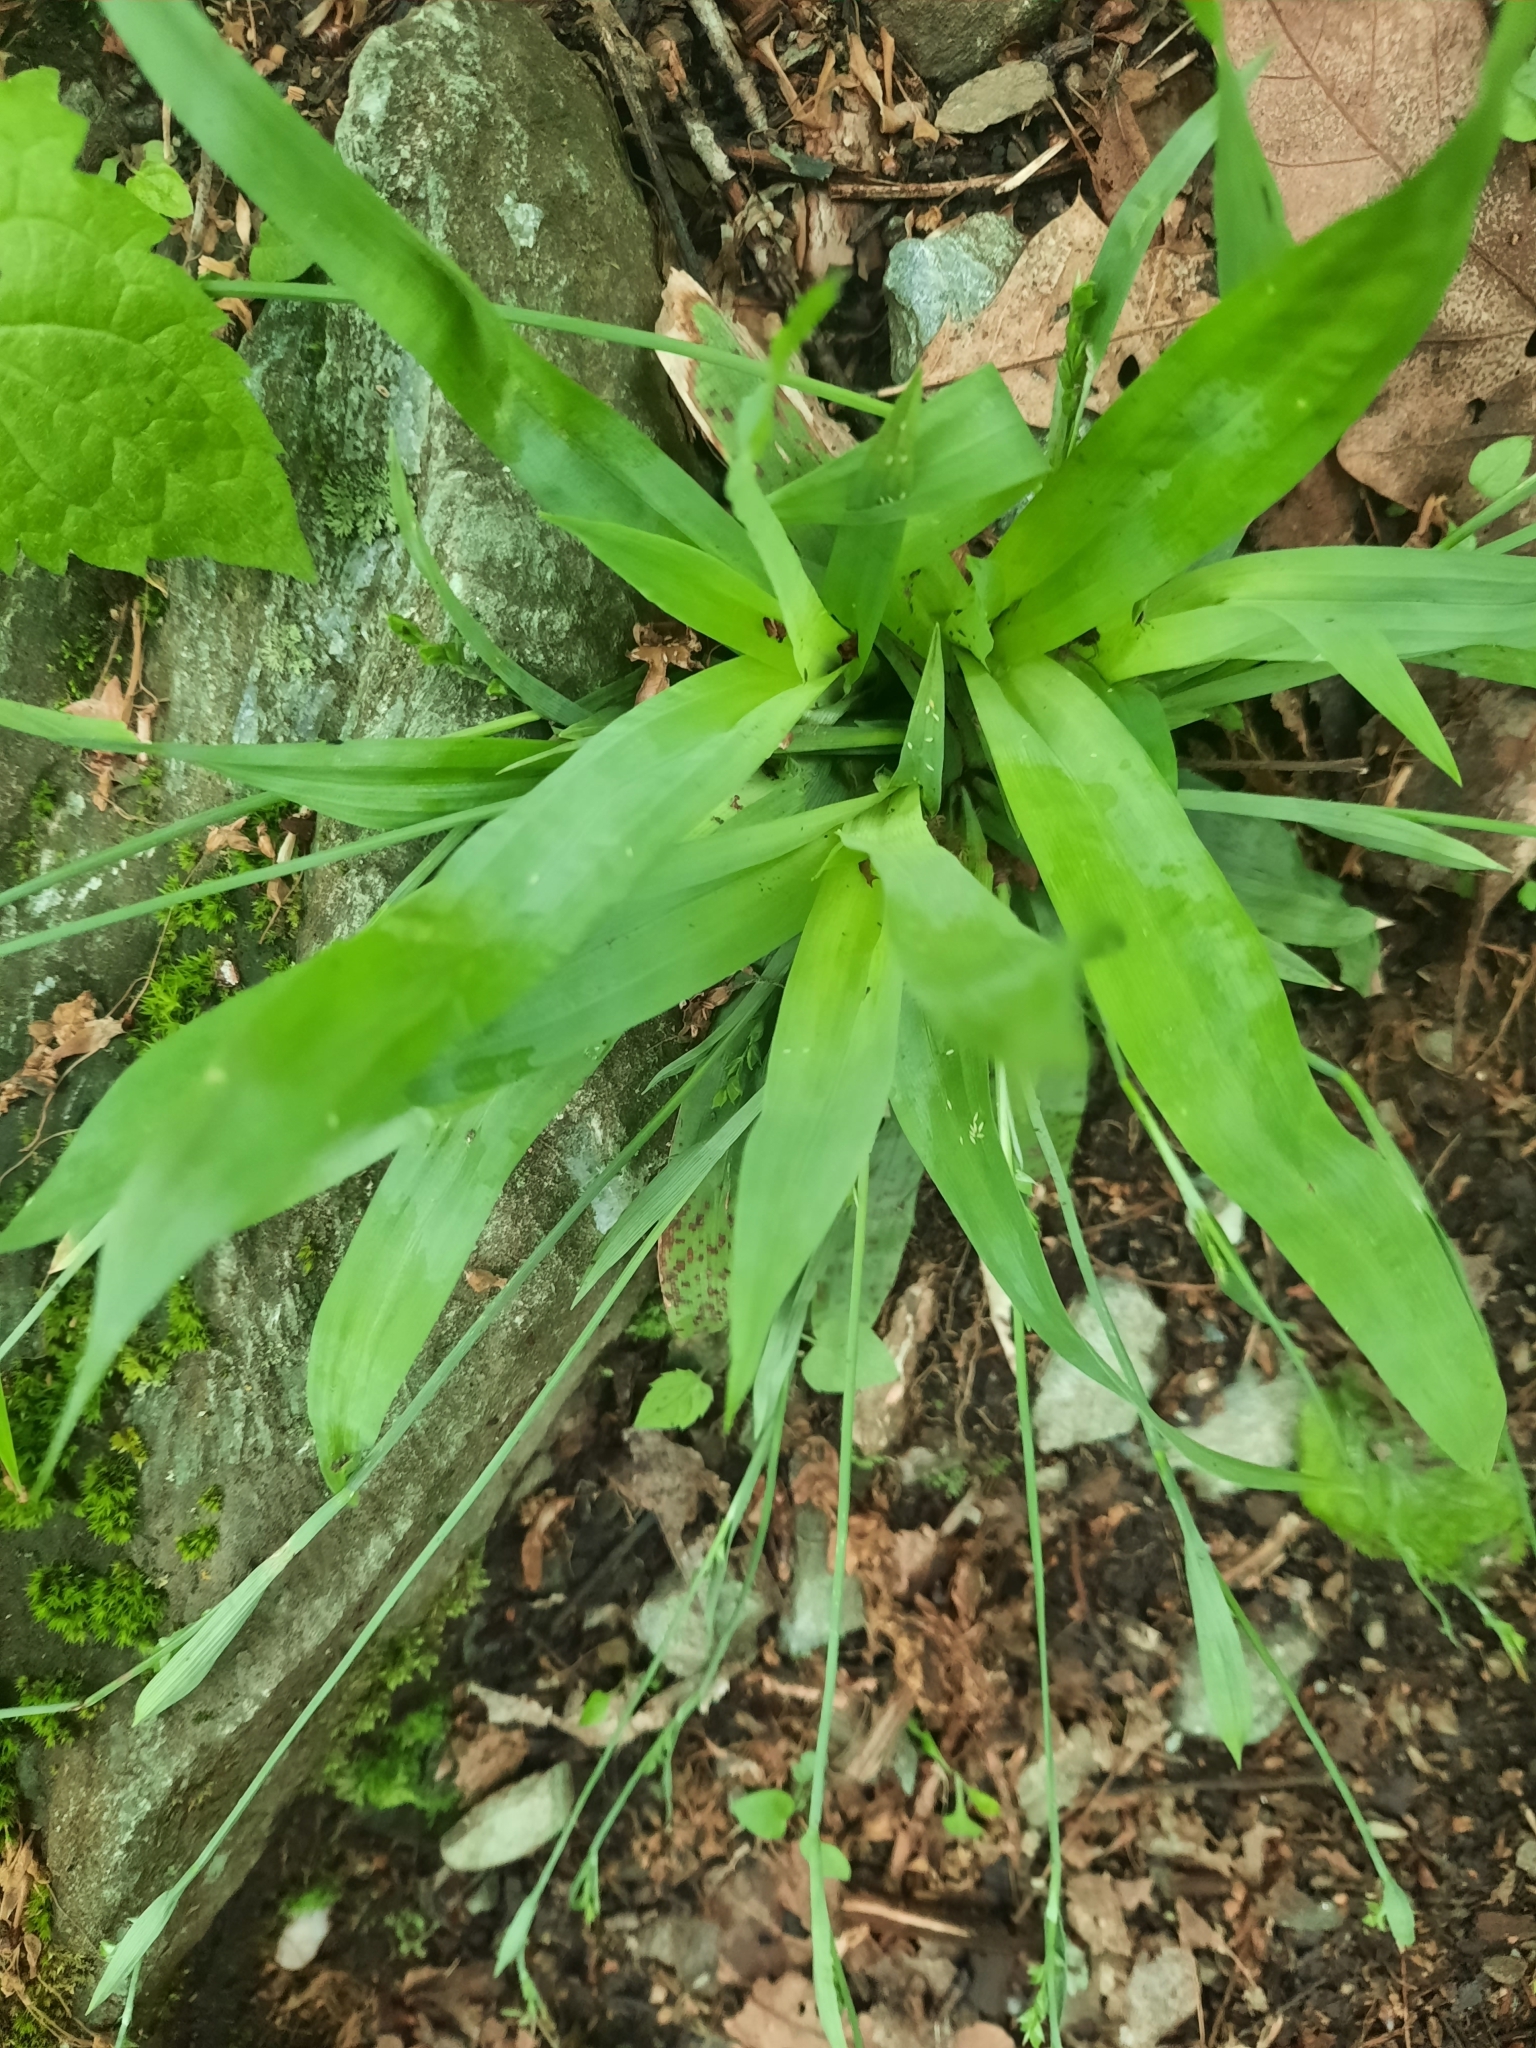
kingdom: Plantae
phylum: Tracheophyta
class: Liliopsida
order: Poales
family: Cyperaceae
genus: Carex
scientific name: Carex platyphylla
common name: Broad-leaved sedge
